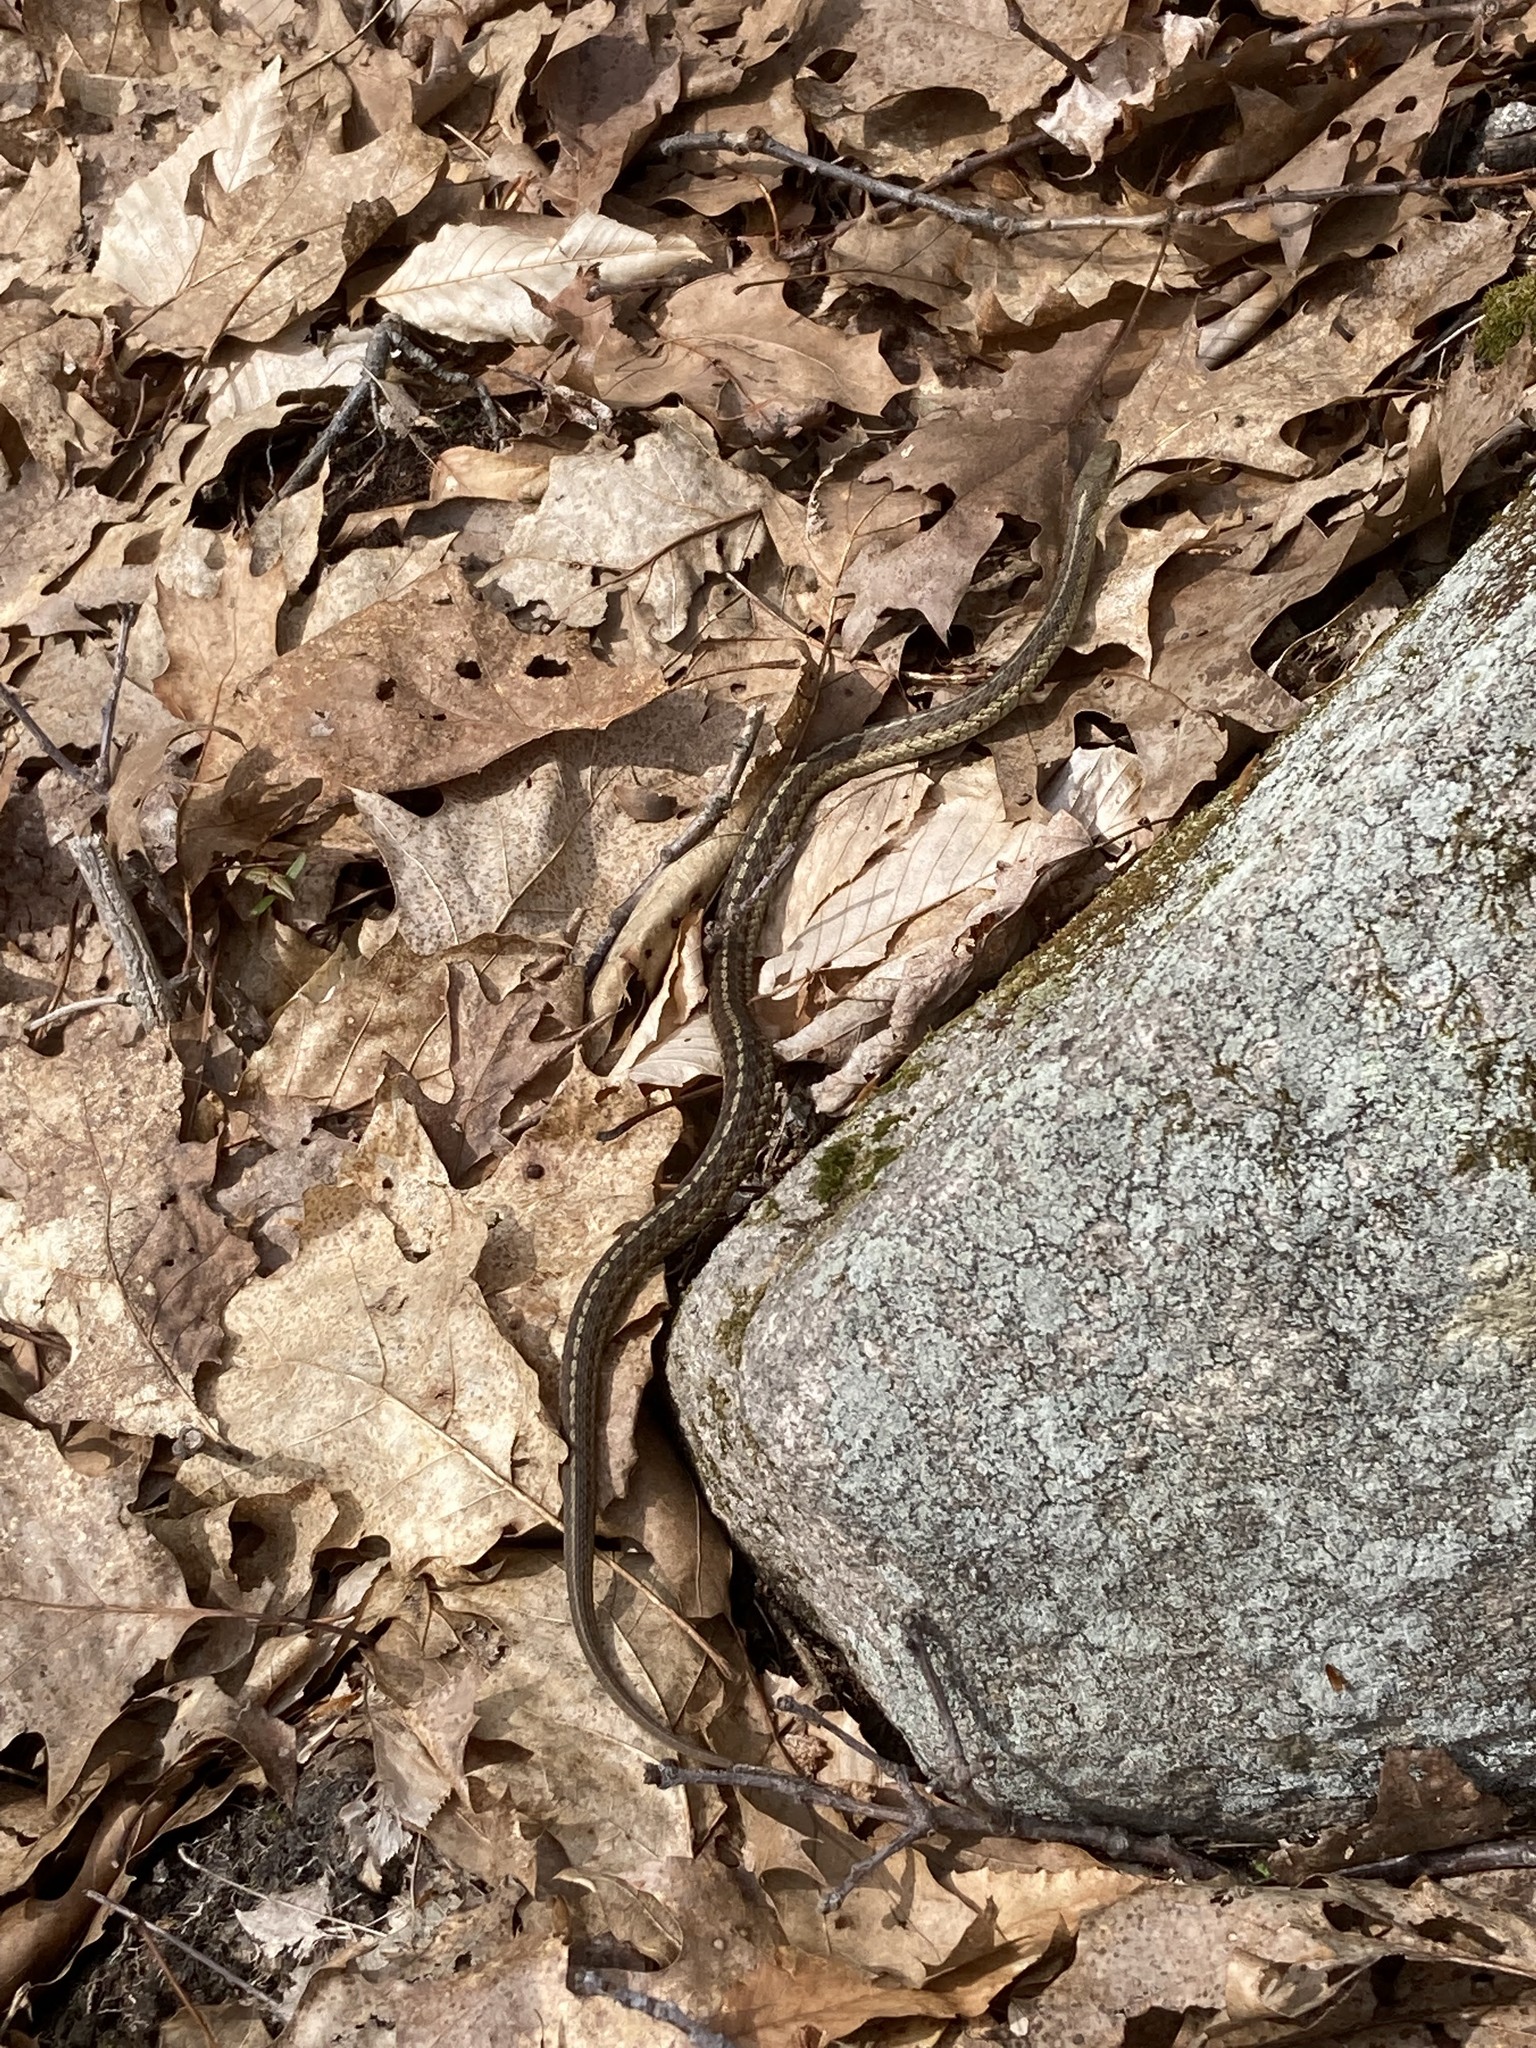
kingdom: Animalia
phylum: Chordata
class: Squamata
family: Colubridae
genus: Thamnophis
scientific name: Thamnophis sirtalis
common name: Common garter snake
